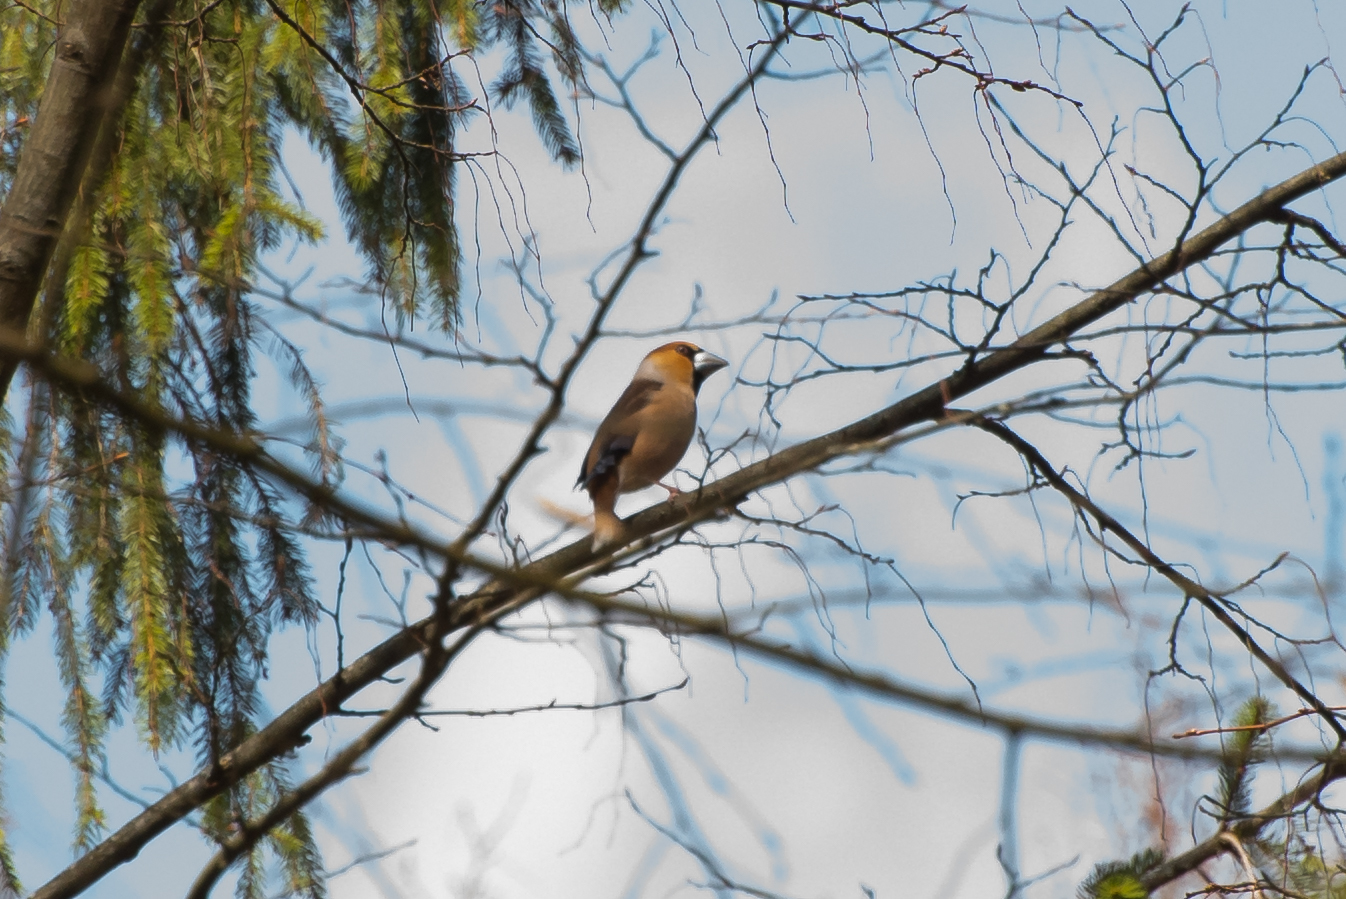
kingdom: Animalia
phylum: Chordata
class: Aves
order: Passeriformes
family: Fringillidae
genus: Coccothraustes
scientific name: Coccothraustes coccothraustes
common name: Hawfinch
